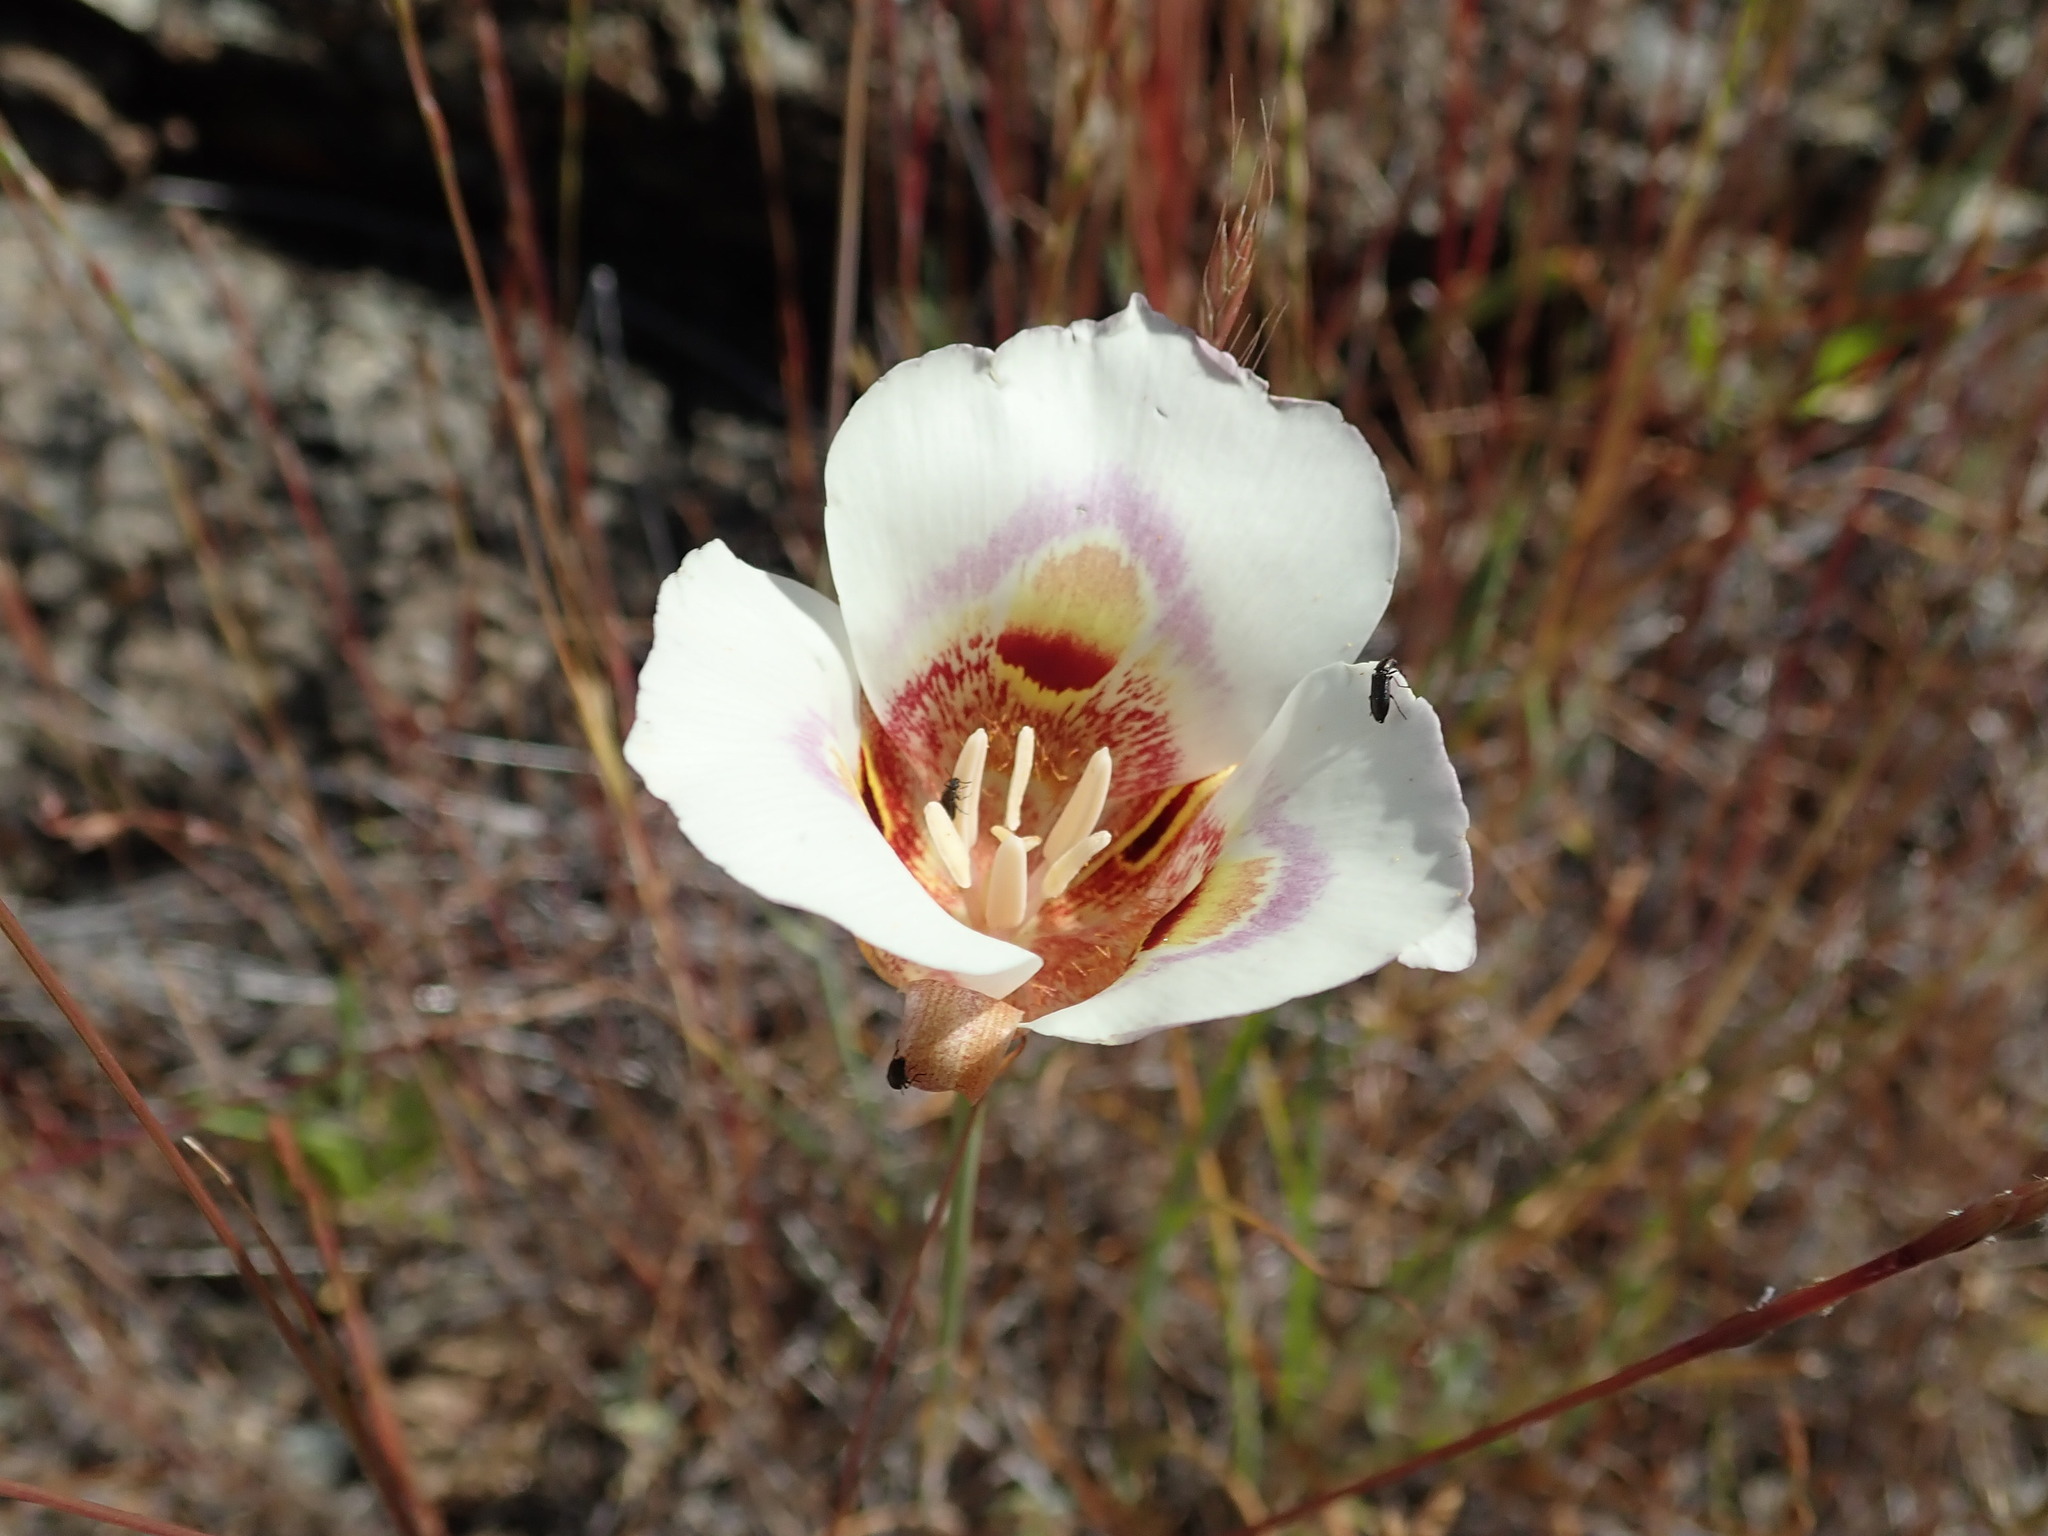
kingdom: Plantae
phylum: Tracheophyta
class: Liliopsida
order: Liliales
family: Liliaceae
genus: Calochortus
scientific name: Calochortus argillosus
